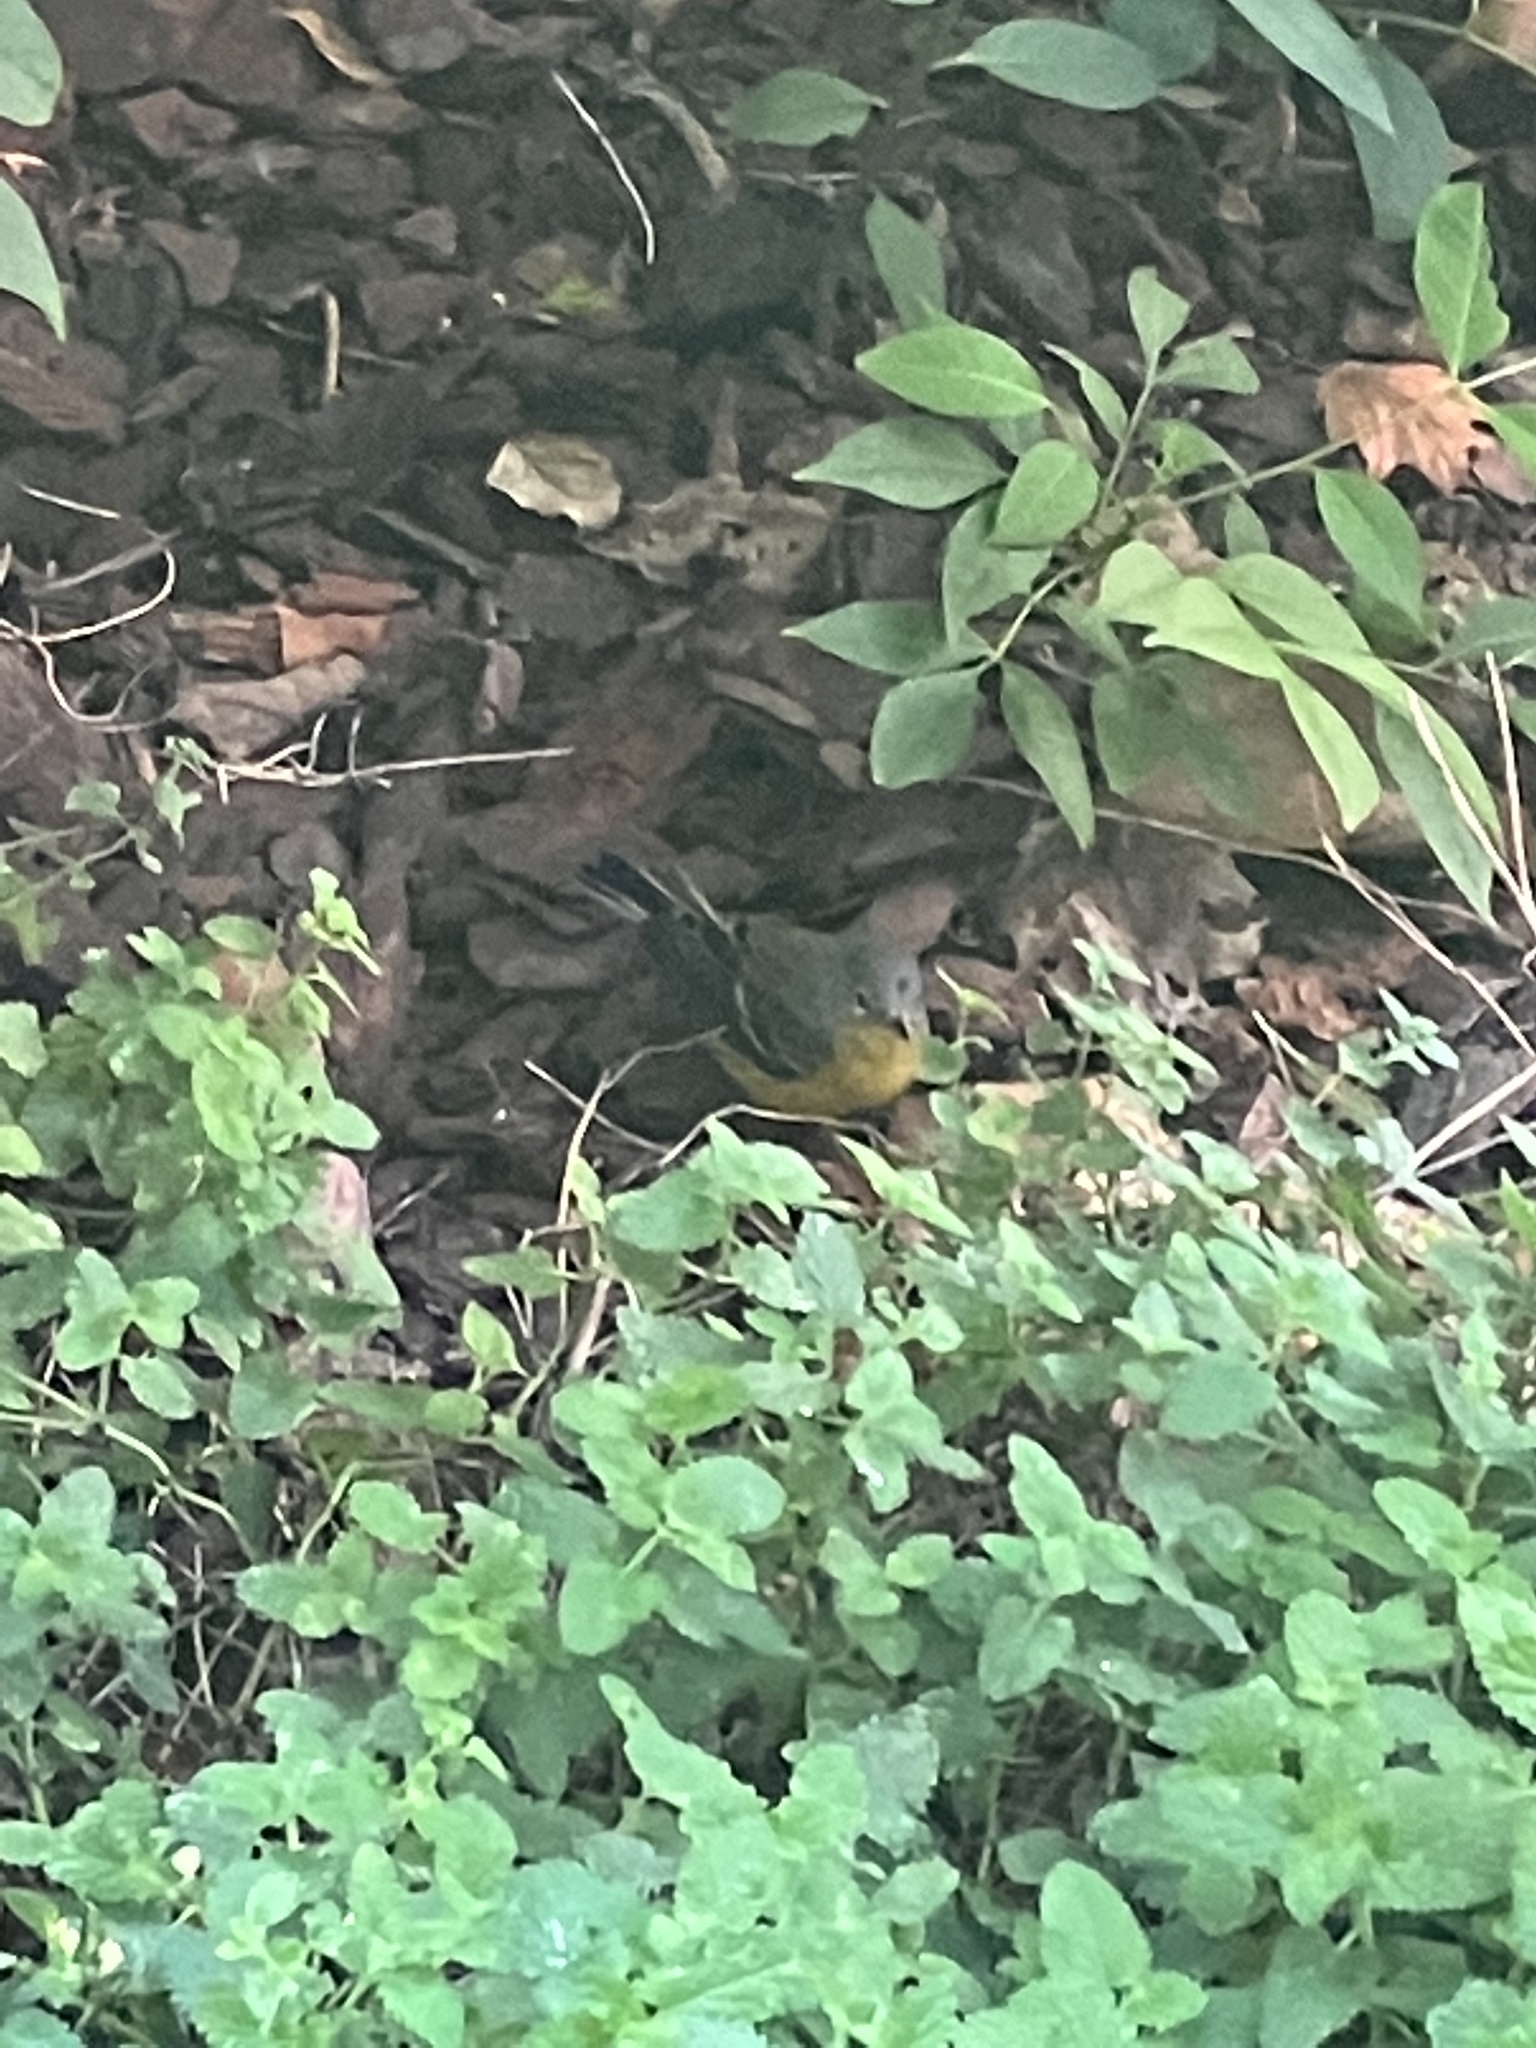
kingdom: Animalia
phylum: Chordata
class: Aves
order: Passeriformes
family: Parulidae
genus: Setophaga
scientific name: Setophaga magnolia
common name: Magnolia warbler
